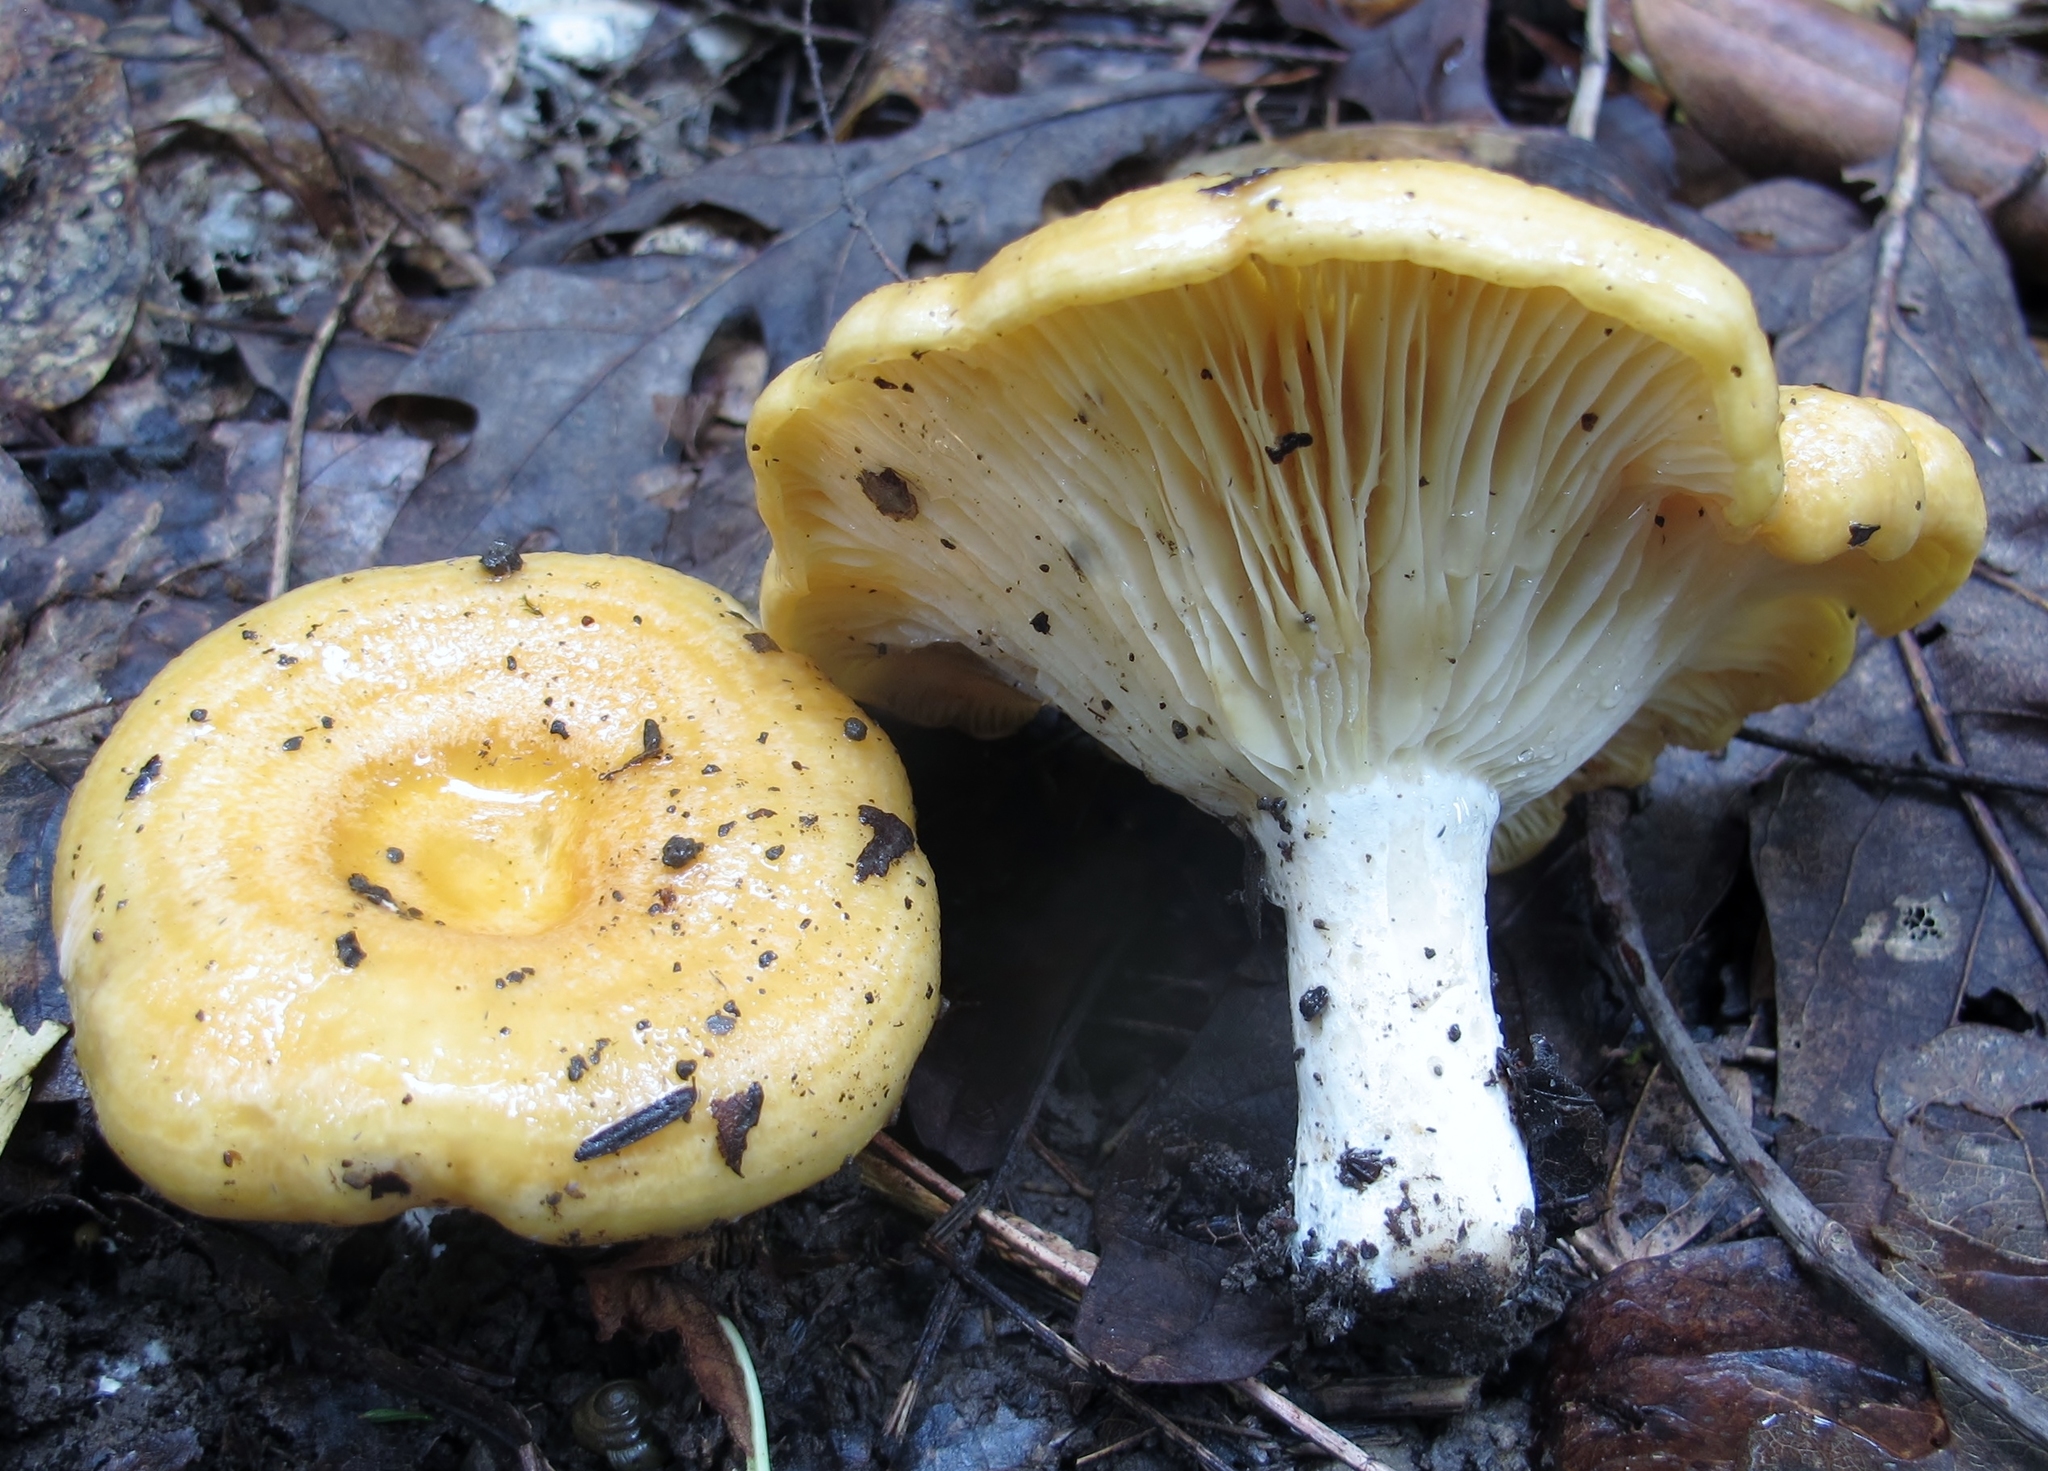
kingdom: Fungi
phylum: Basidiomycota
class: Agaricomycetes
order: Russulales
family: Russulaceae
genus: Lactarius
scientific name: Lactarius croceus
